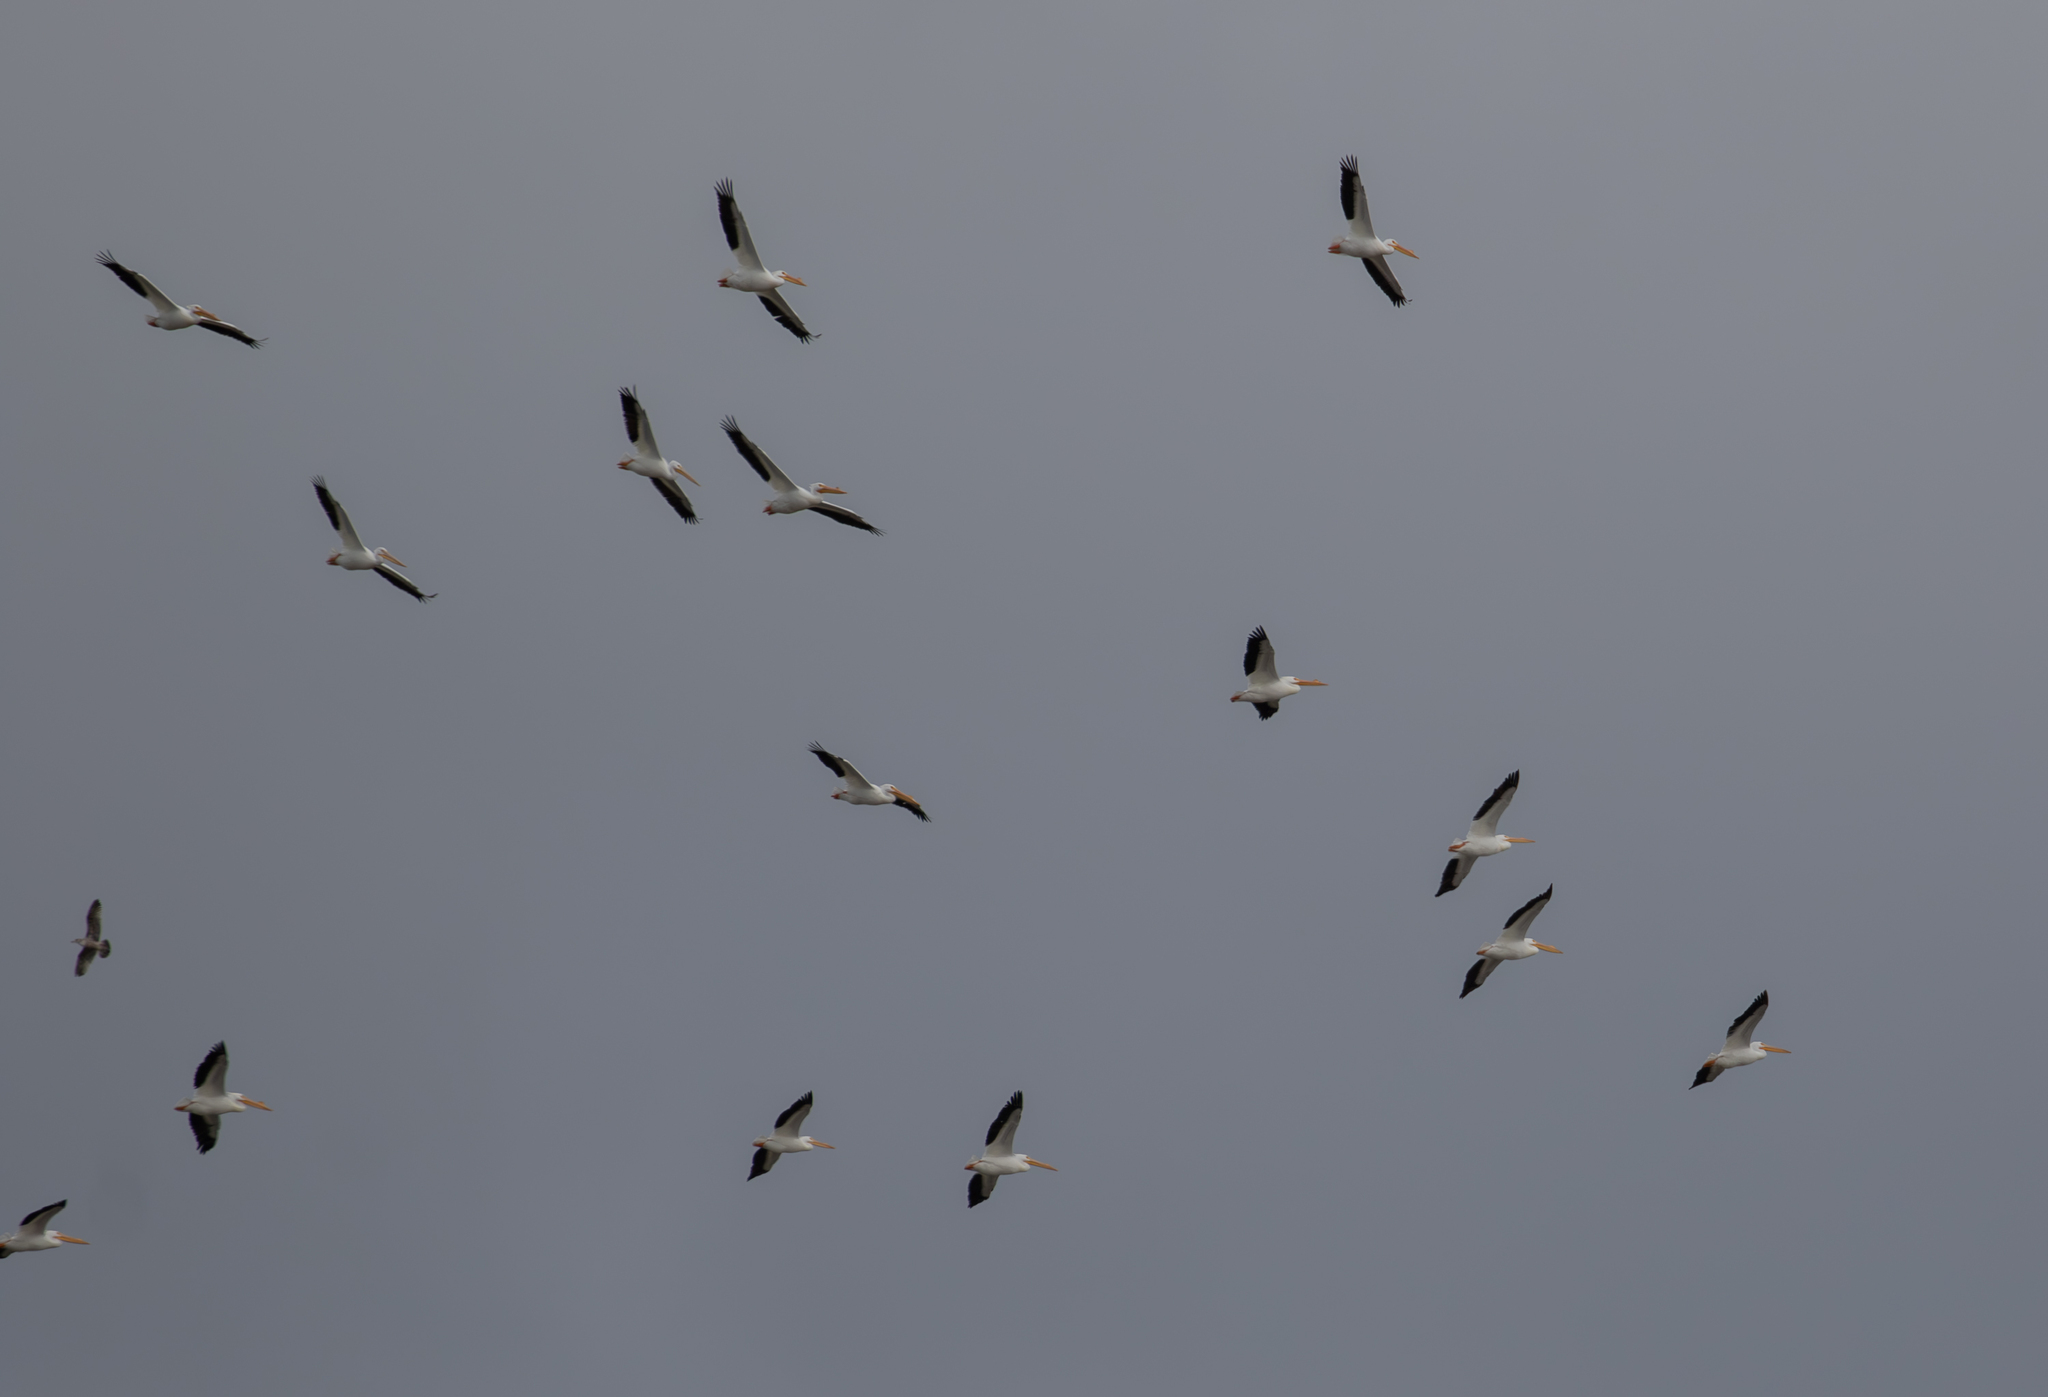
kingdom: Animalia
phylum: Chordata
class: Aves
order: Pelecaniformes
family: Pelecanidae
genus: Pelecanus
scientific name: Pelecanus erythrorhynchos
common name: American white pelican
